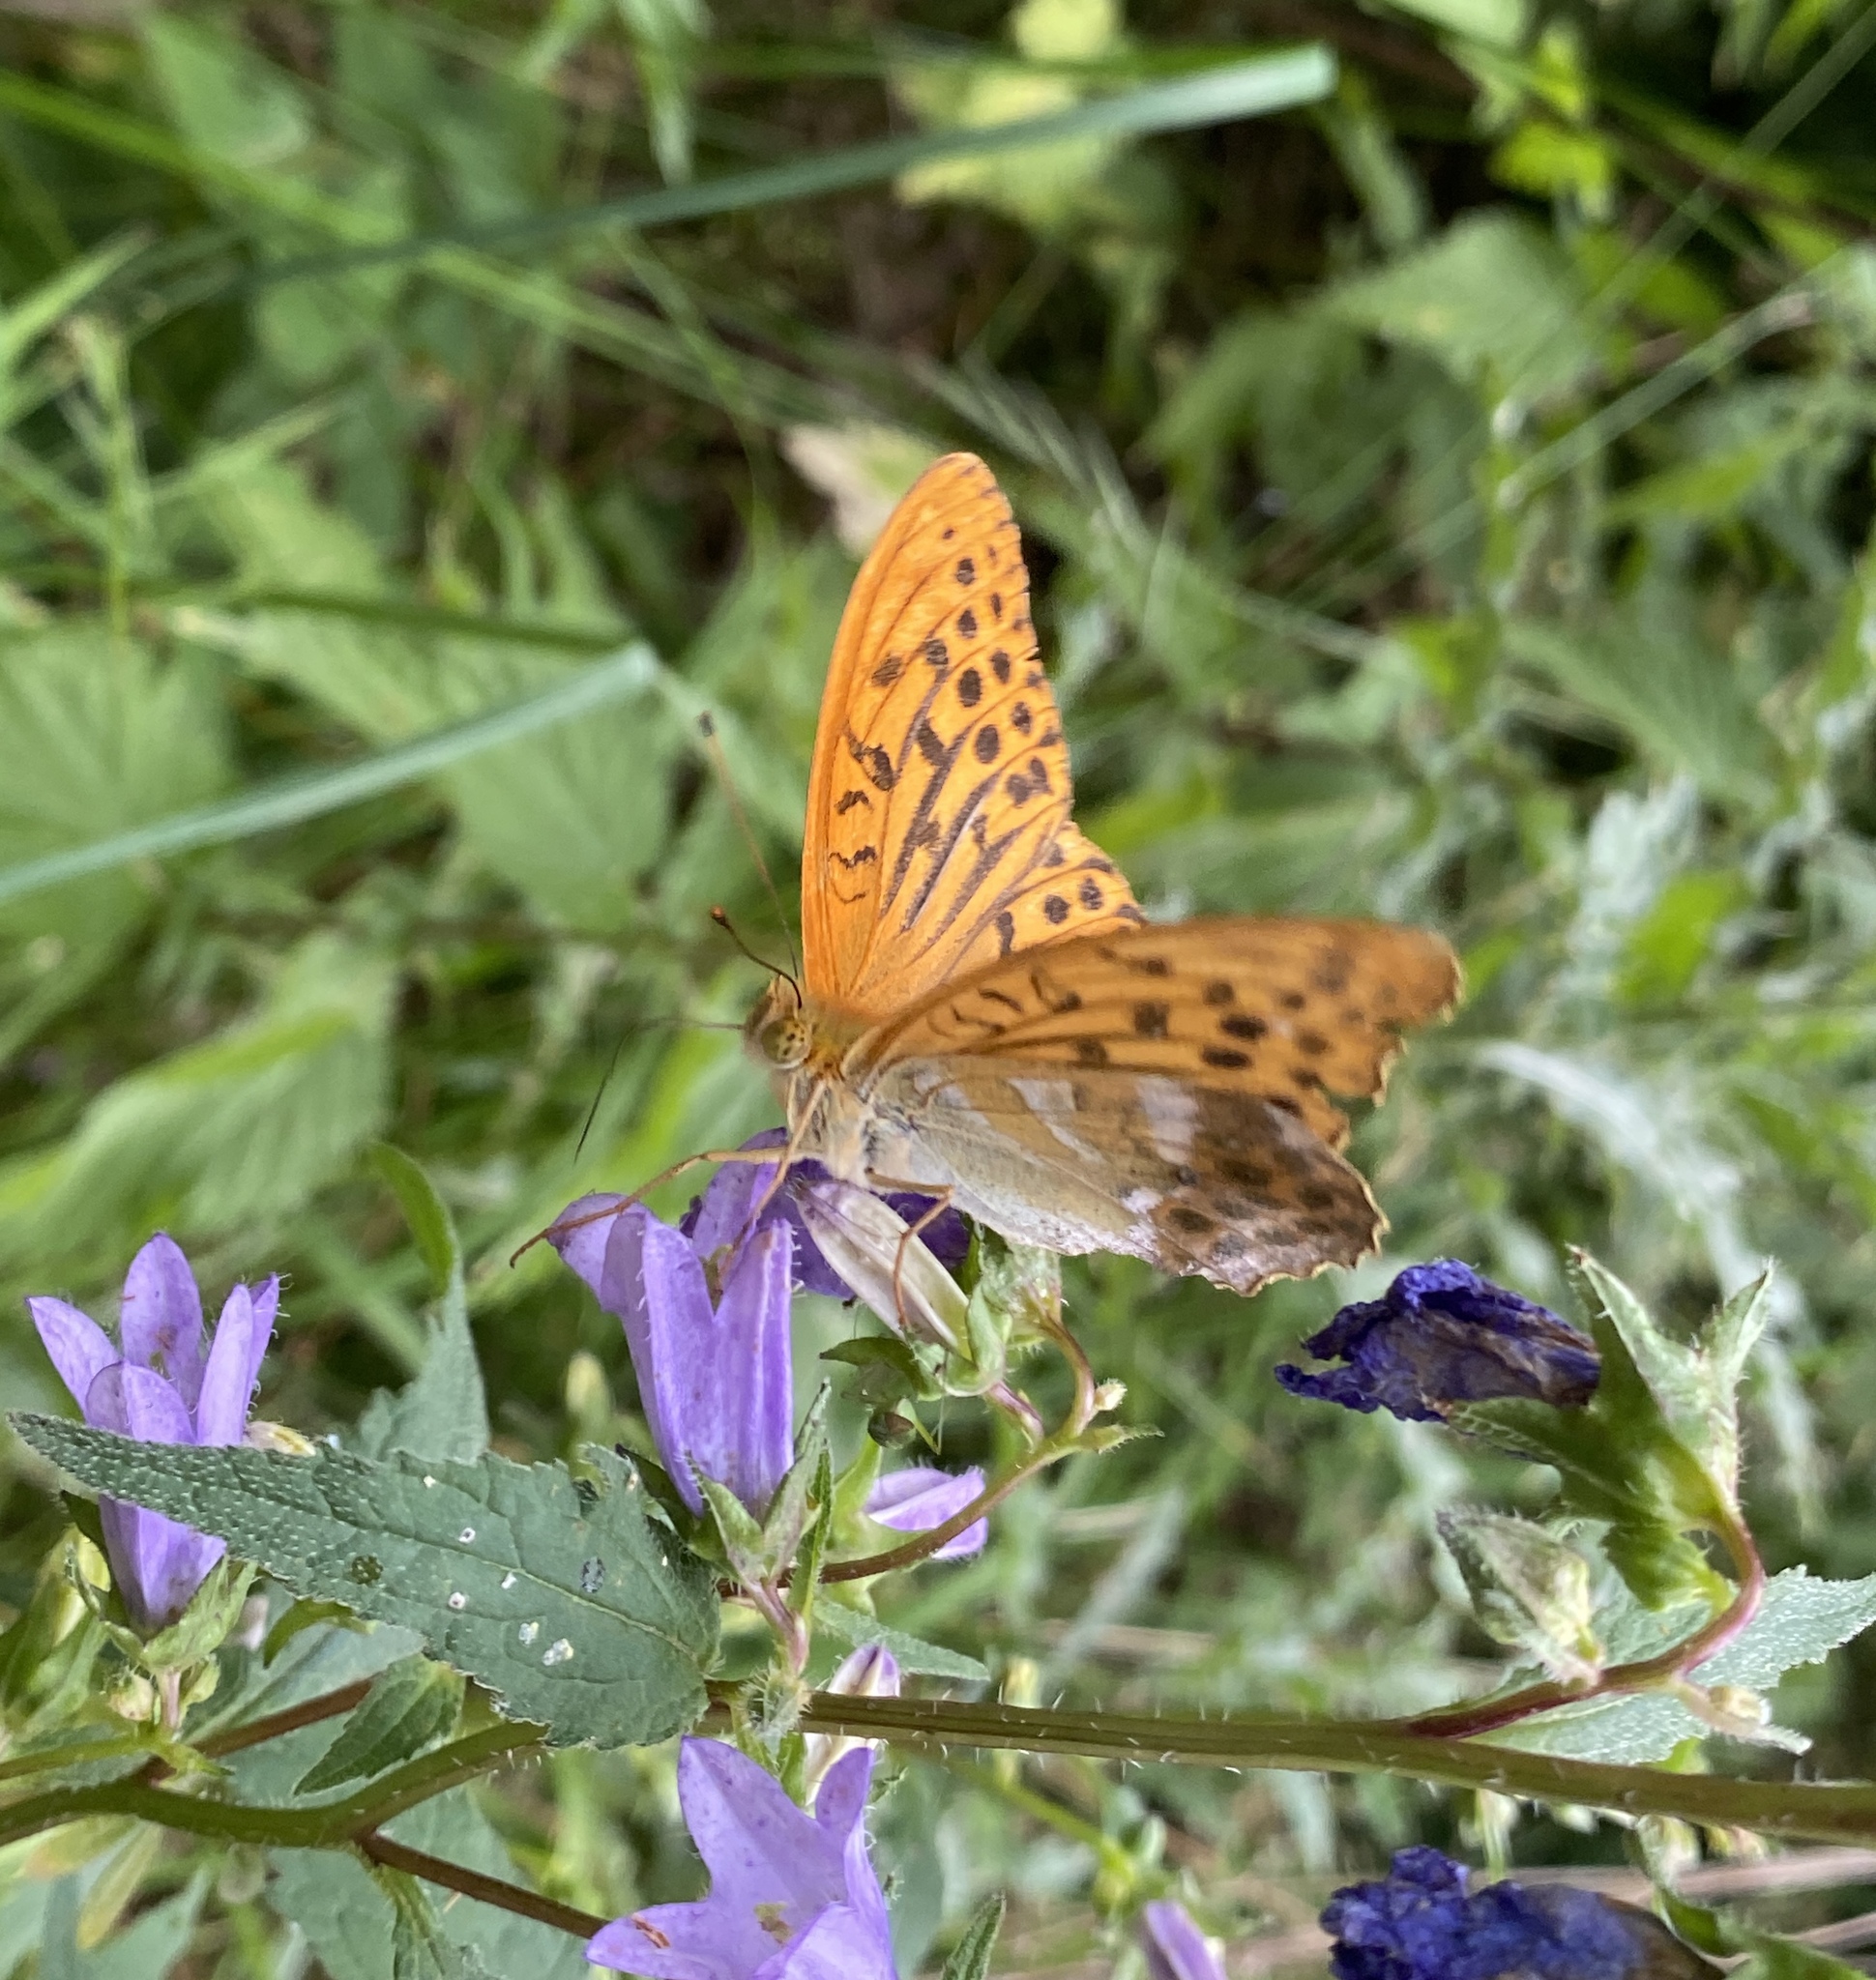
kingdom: Animalia
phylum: Arthropoda
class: Insecta
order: Lepidoptera
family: Nymphalidae
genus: Argynnis
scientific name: Argynnis paphia
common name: Silver-washed fritillary
